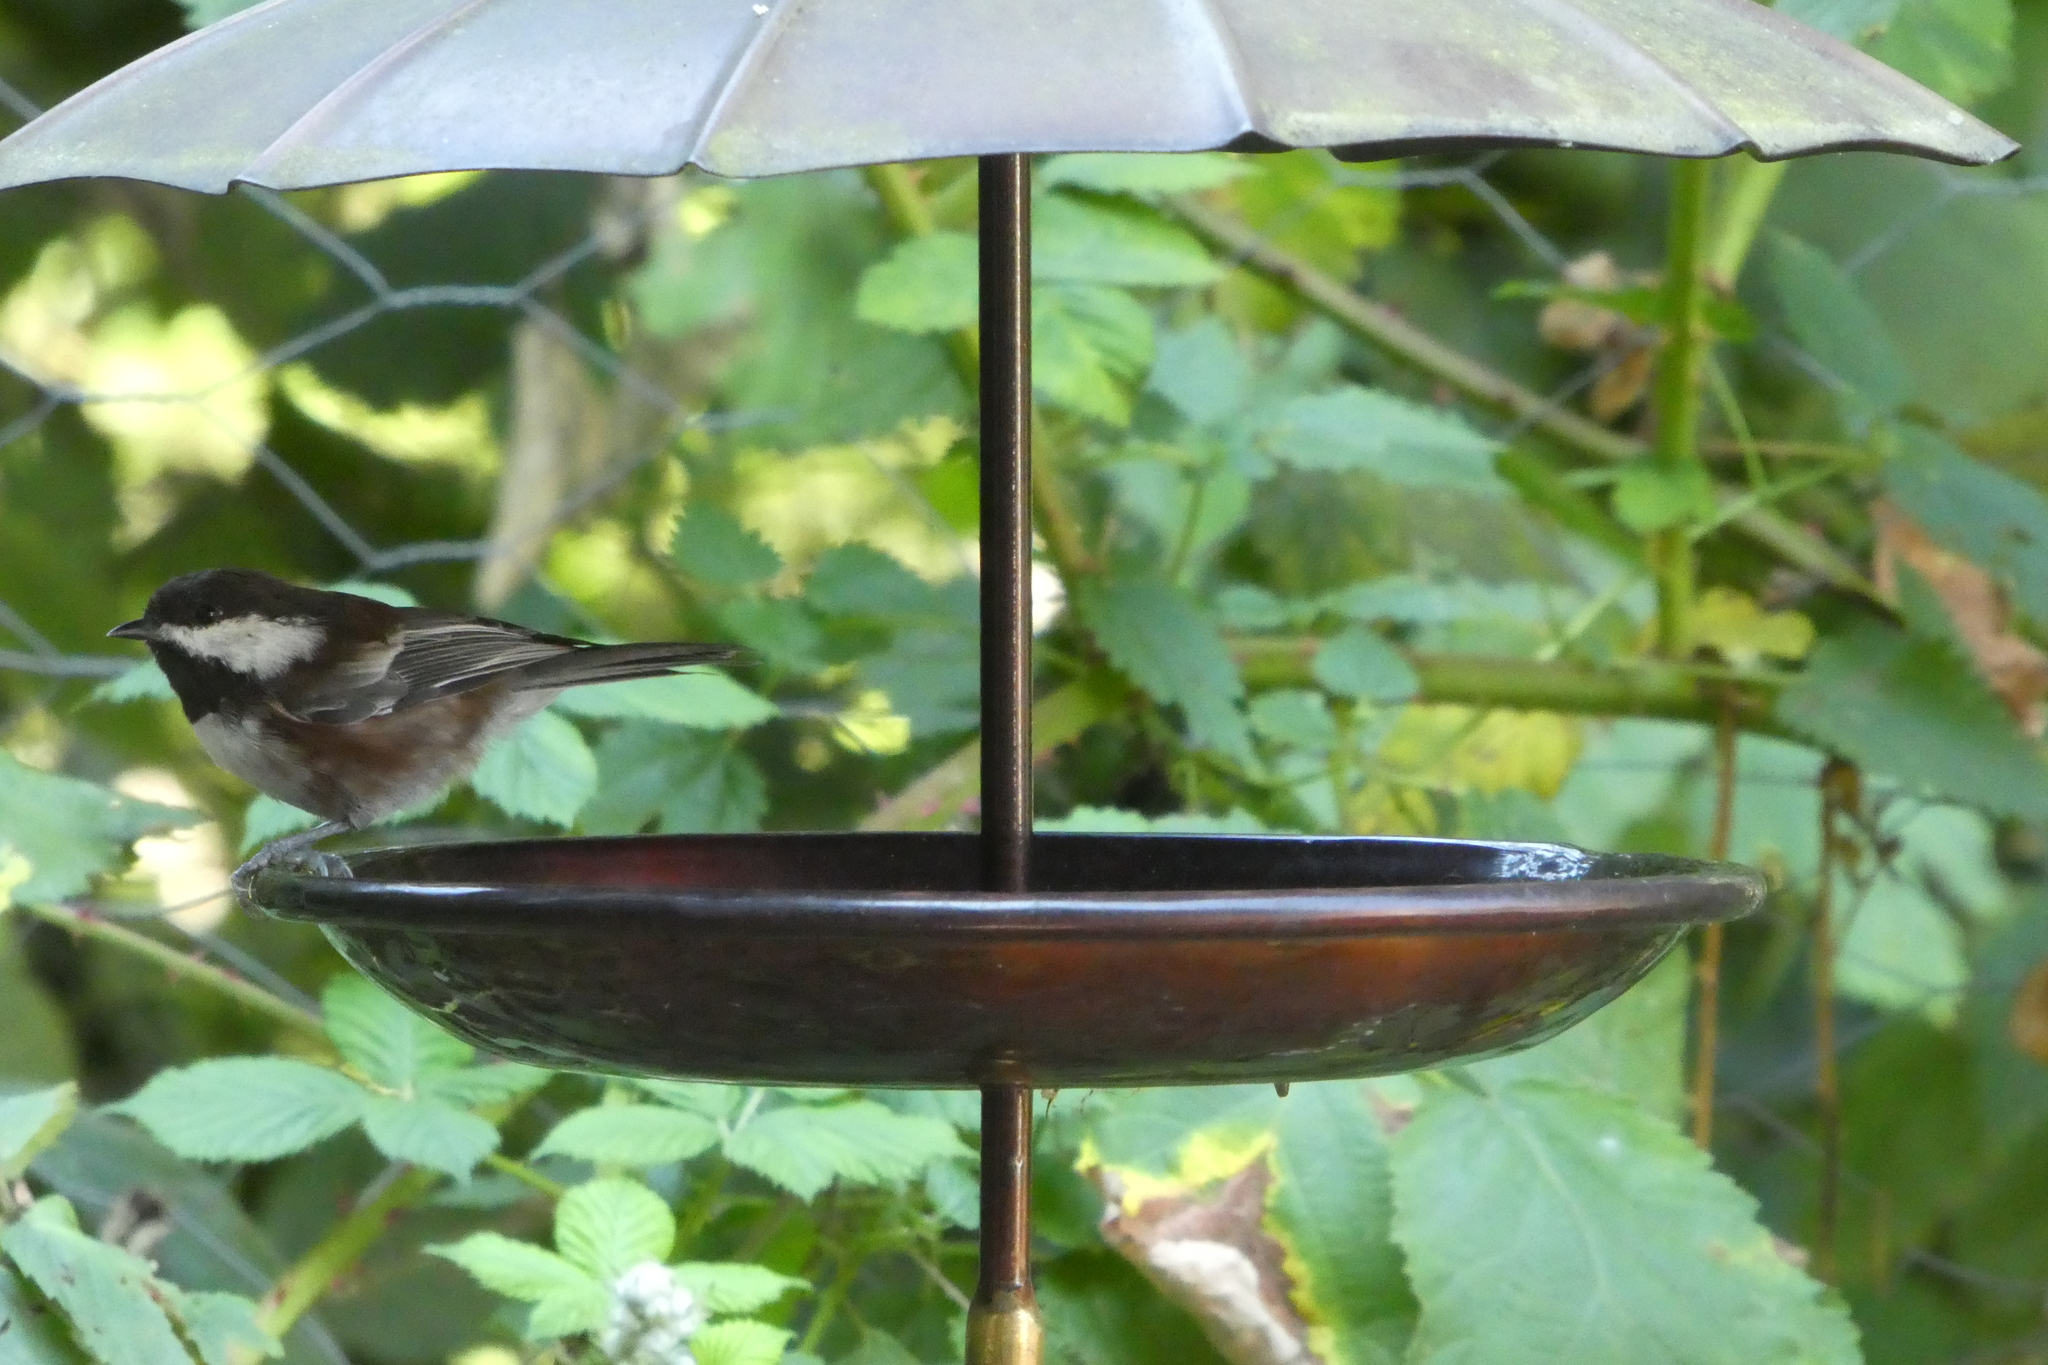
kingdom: Animalia
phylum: Chordata
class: Aves
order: Passeriformes
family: Paridae
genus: Poecile
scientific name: Poecile rufescens
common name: Chestnut-backed chickadee
